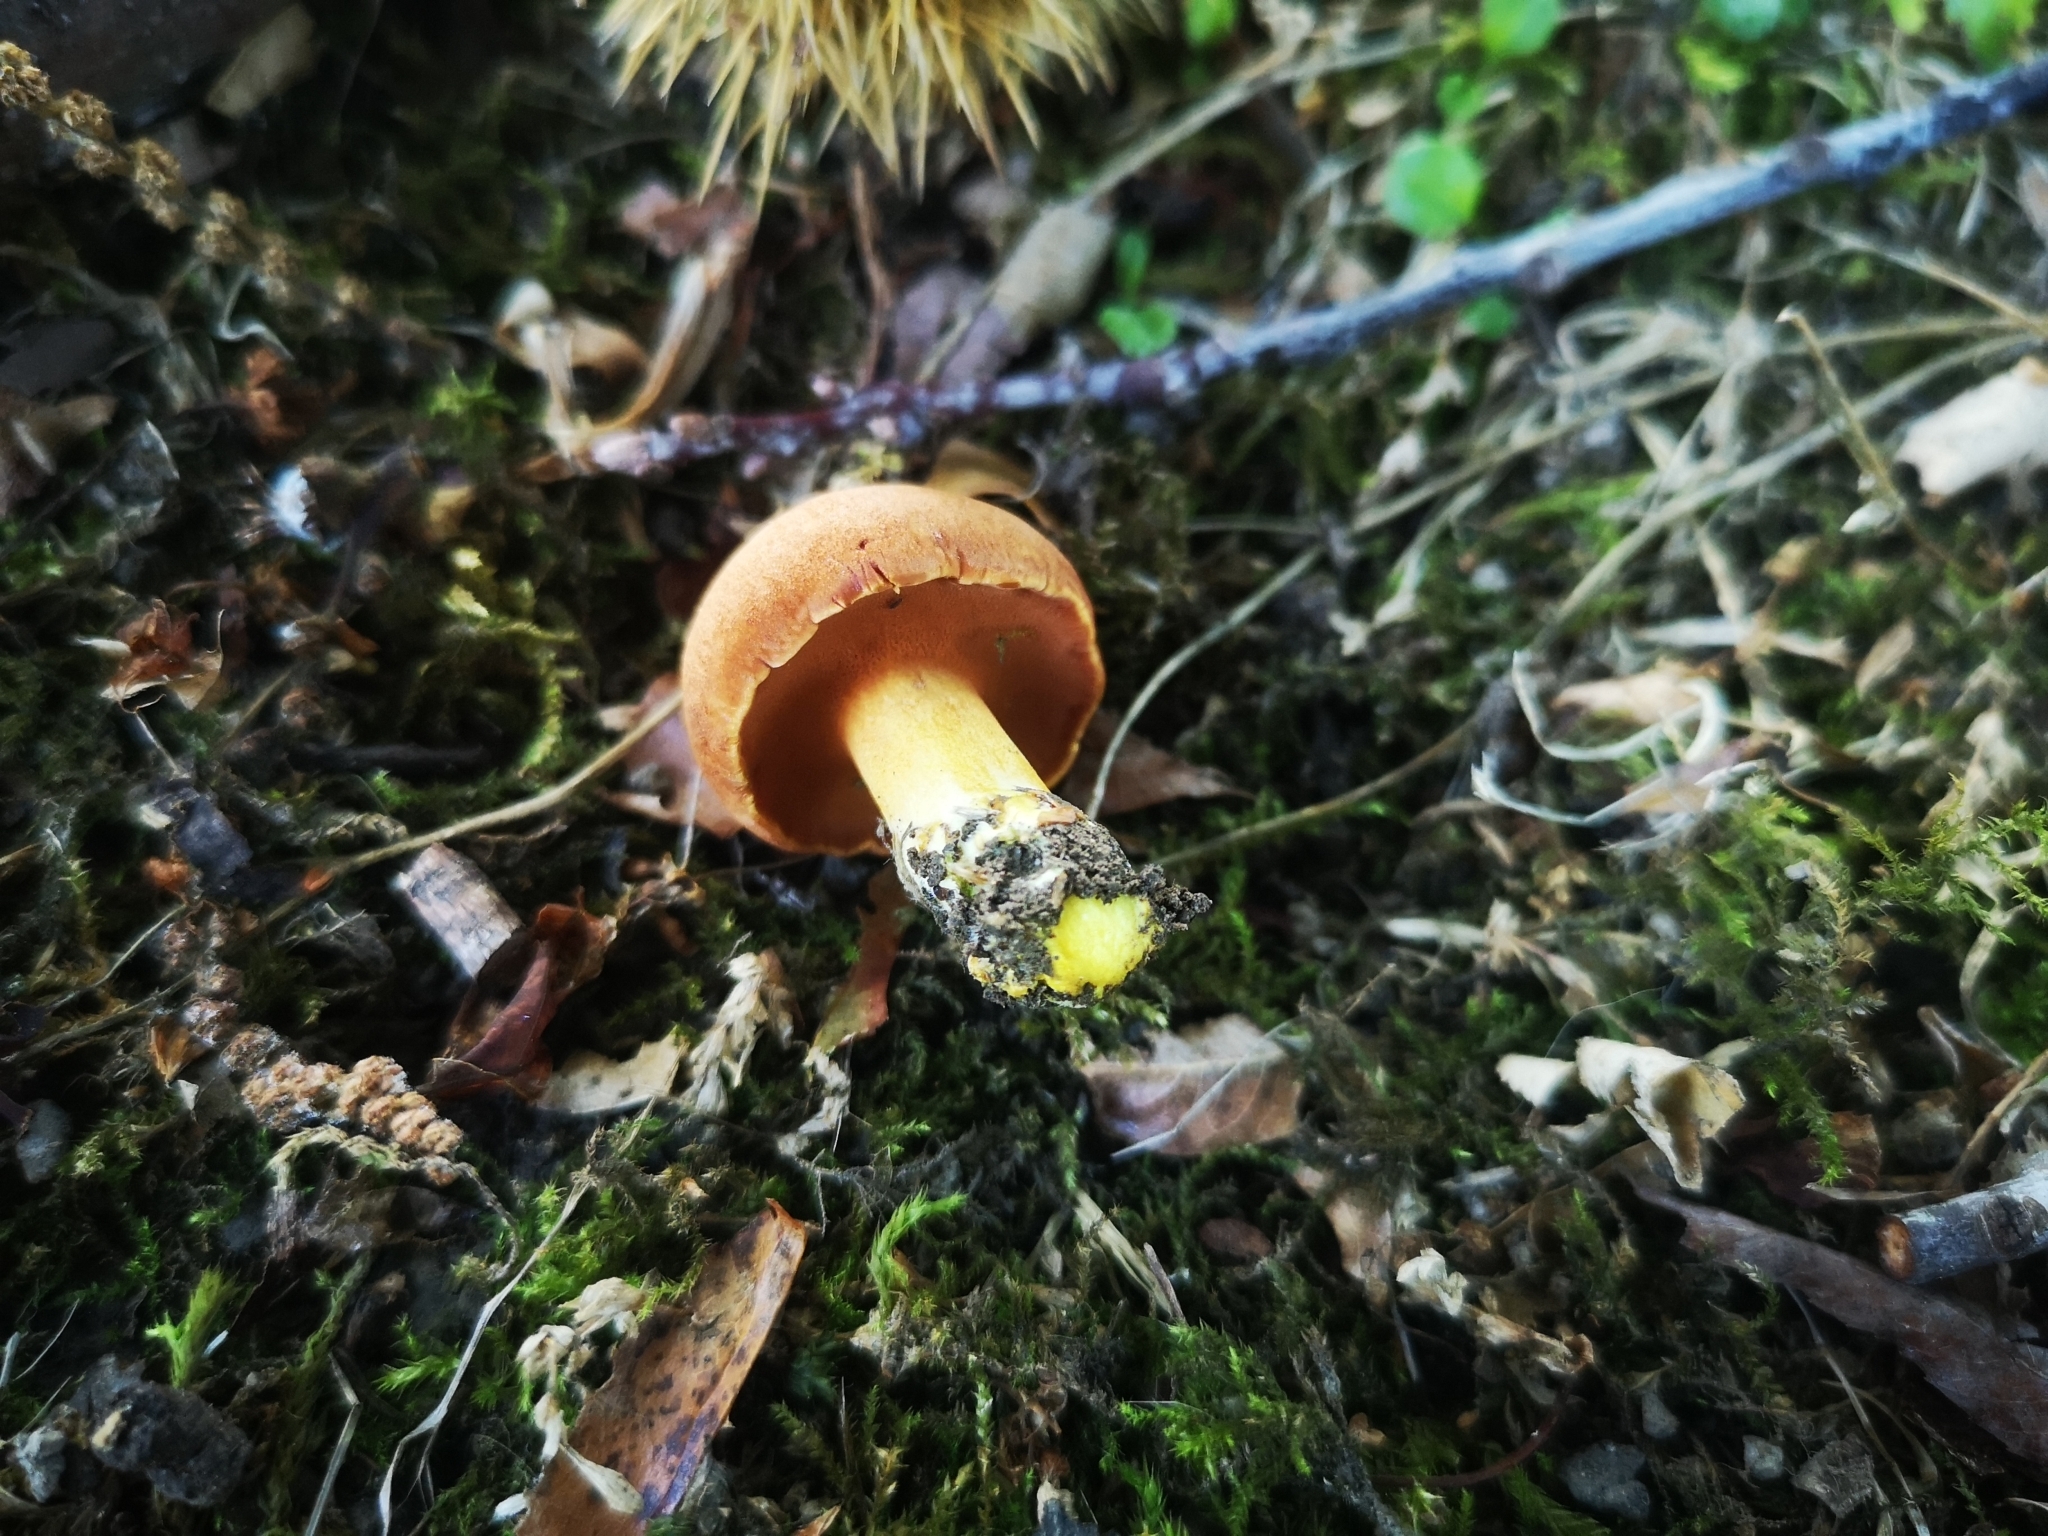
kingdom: Fungi
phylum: Basidiomycota
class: Agaricomycetes
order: Boletales
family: Boletaceae
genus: Chalciporus
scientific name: Chalciporus piperatus
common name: Peppery bolete
